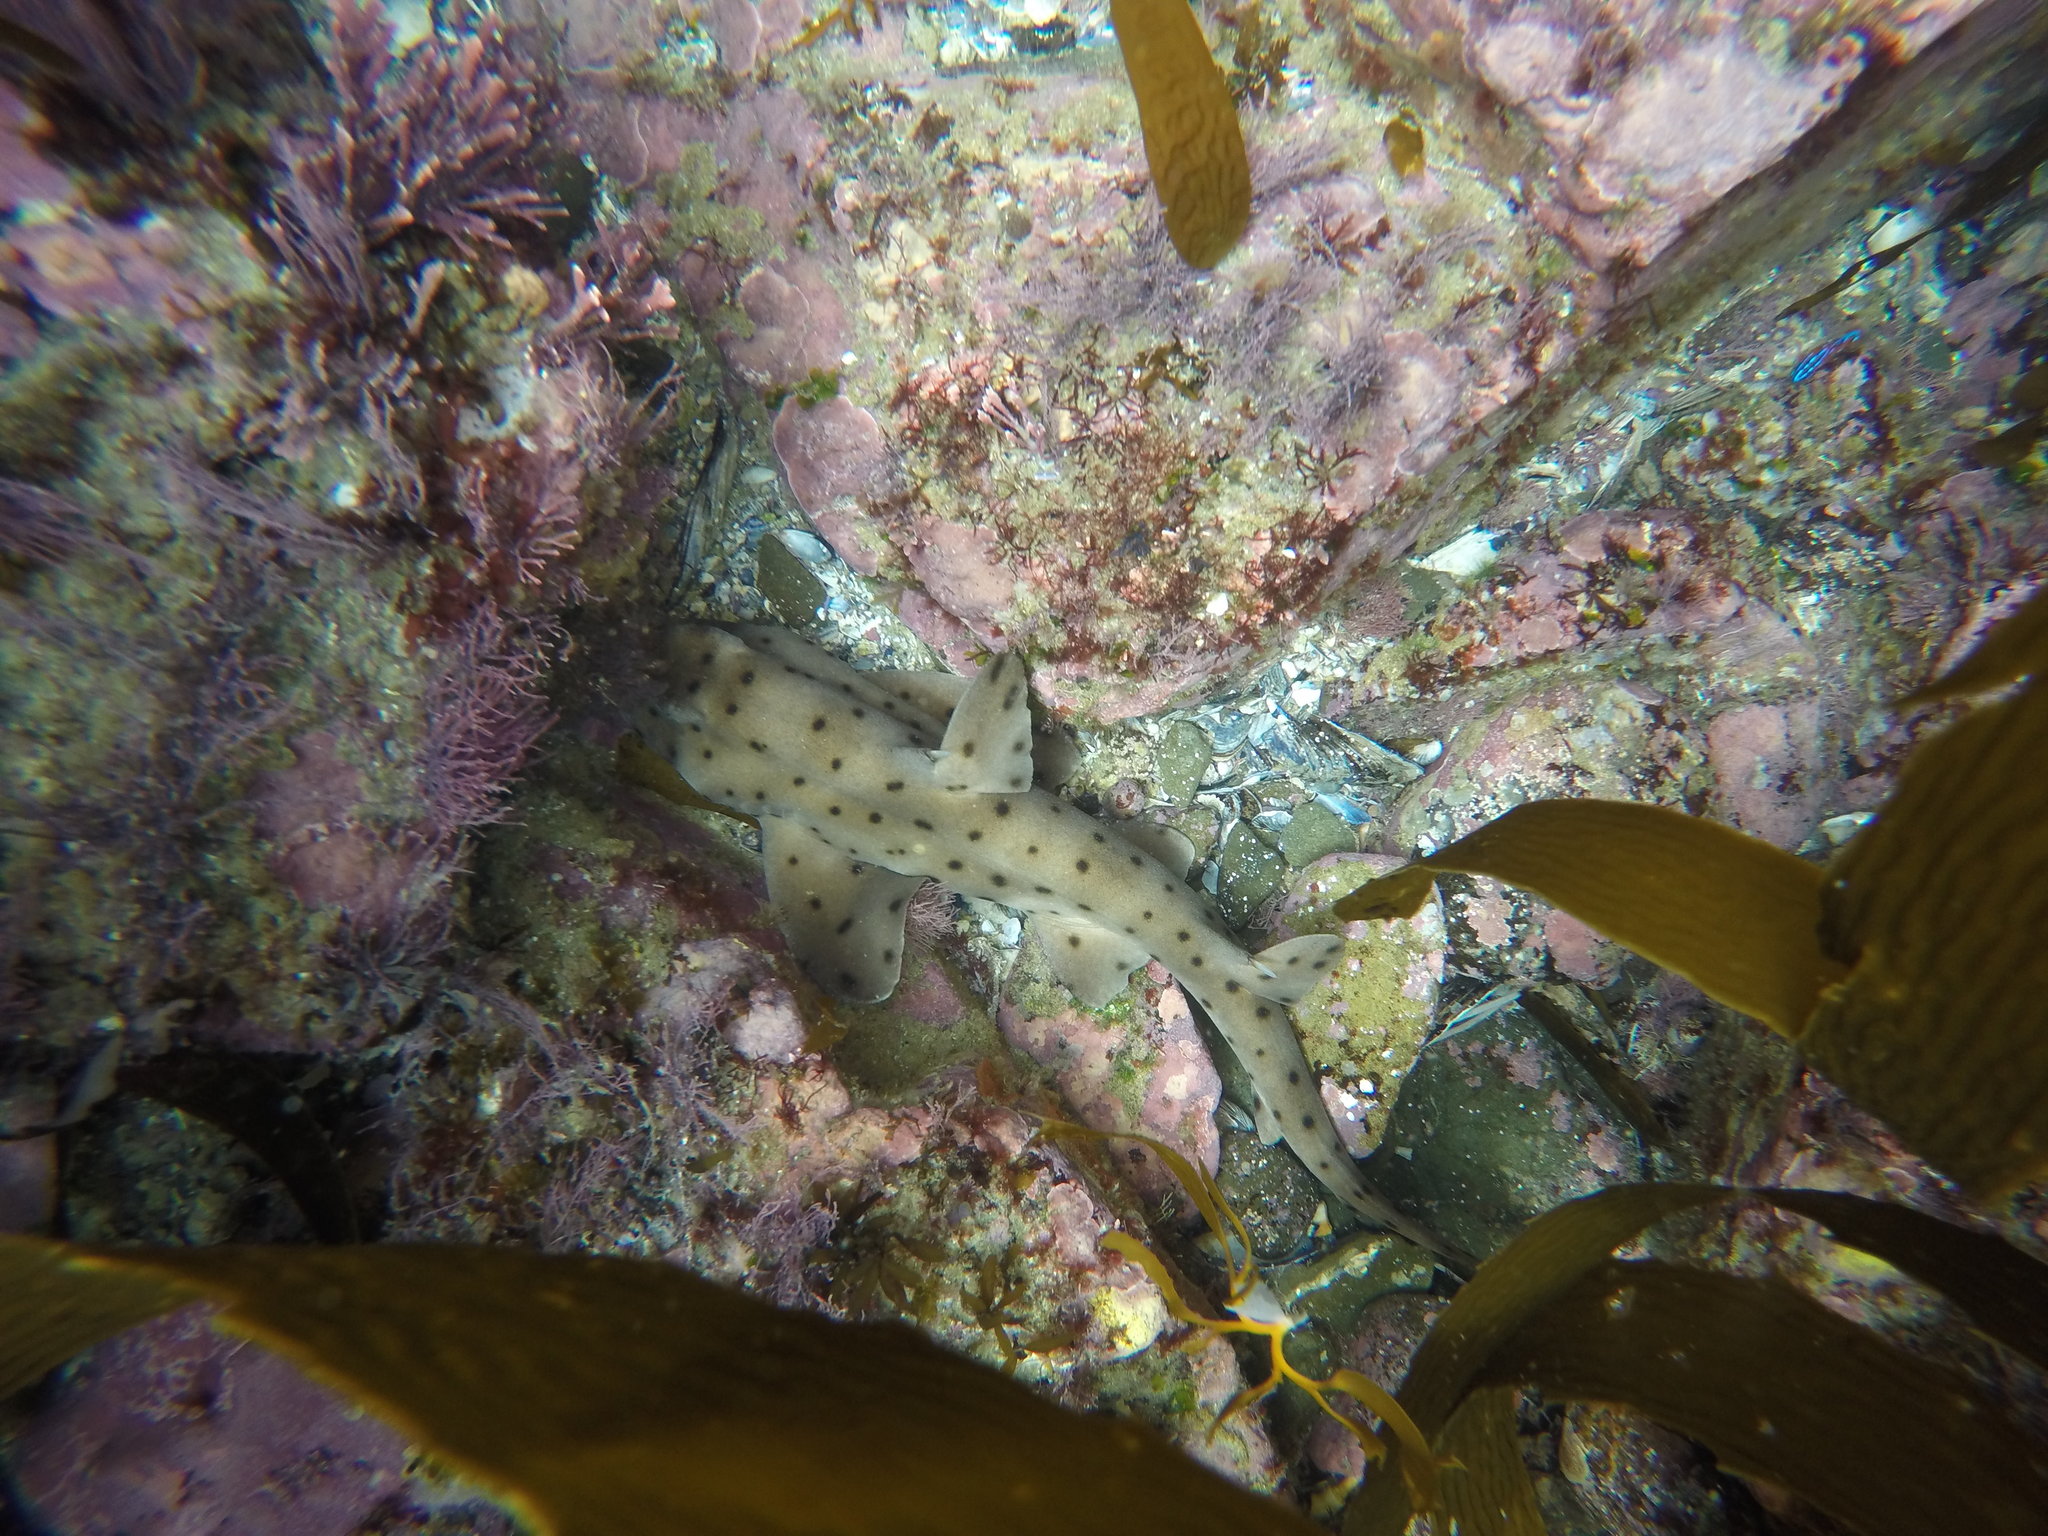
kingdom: Animalia
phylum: Chordata
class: Elasmobranchii
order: Heterodontiformes
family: Heterodontidae
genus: Heterodontus
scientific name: Heterodontus francisci
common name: Horn shark
